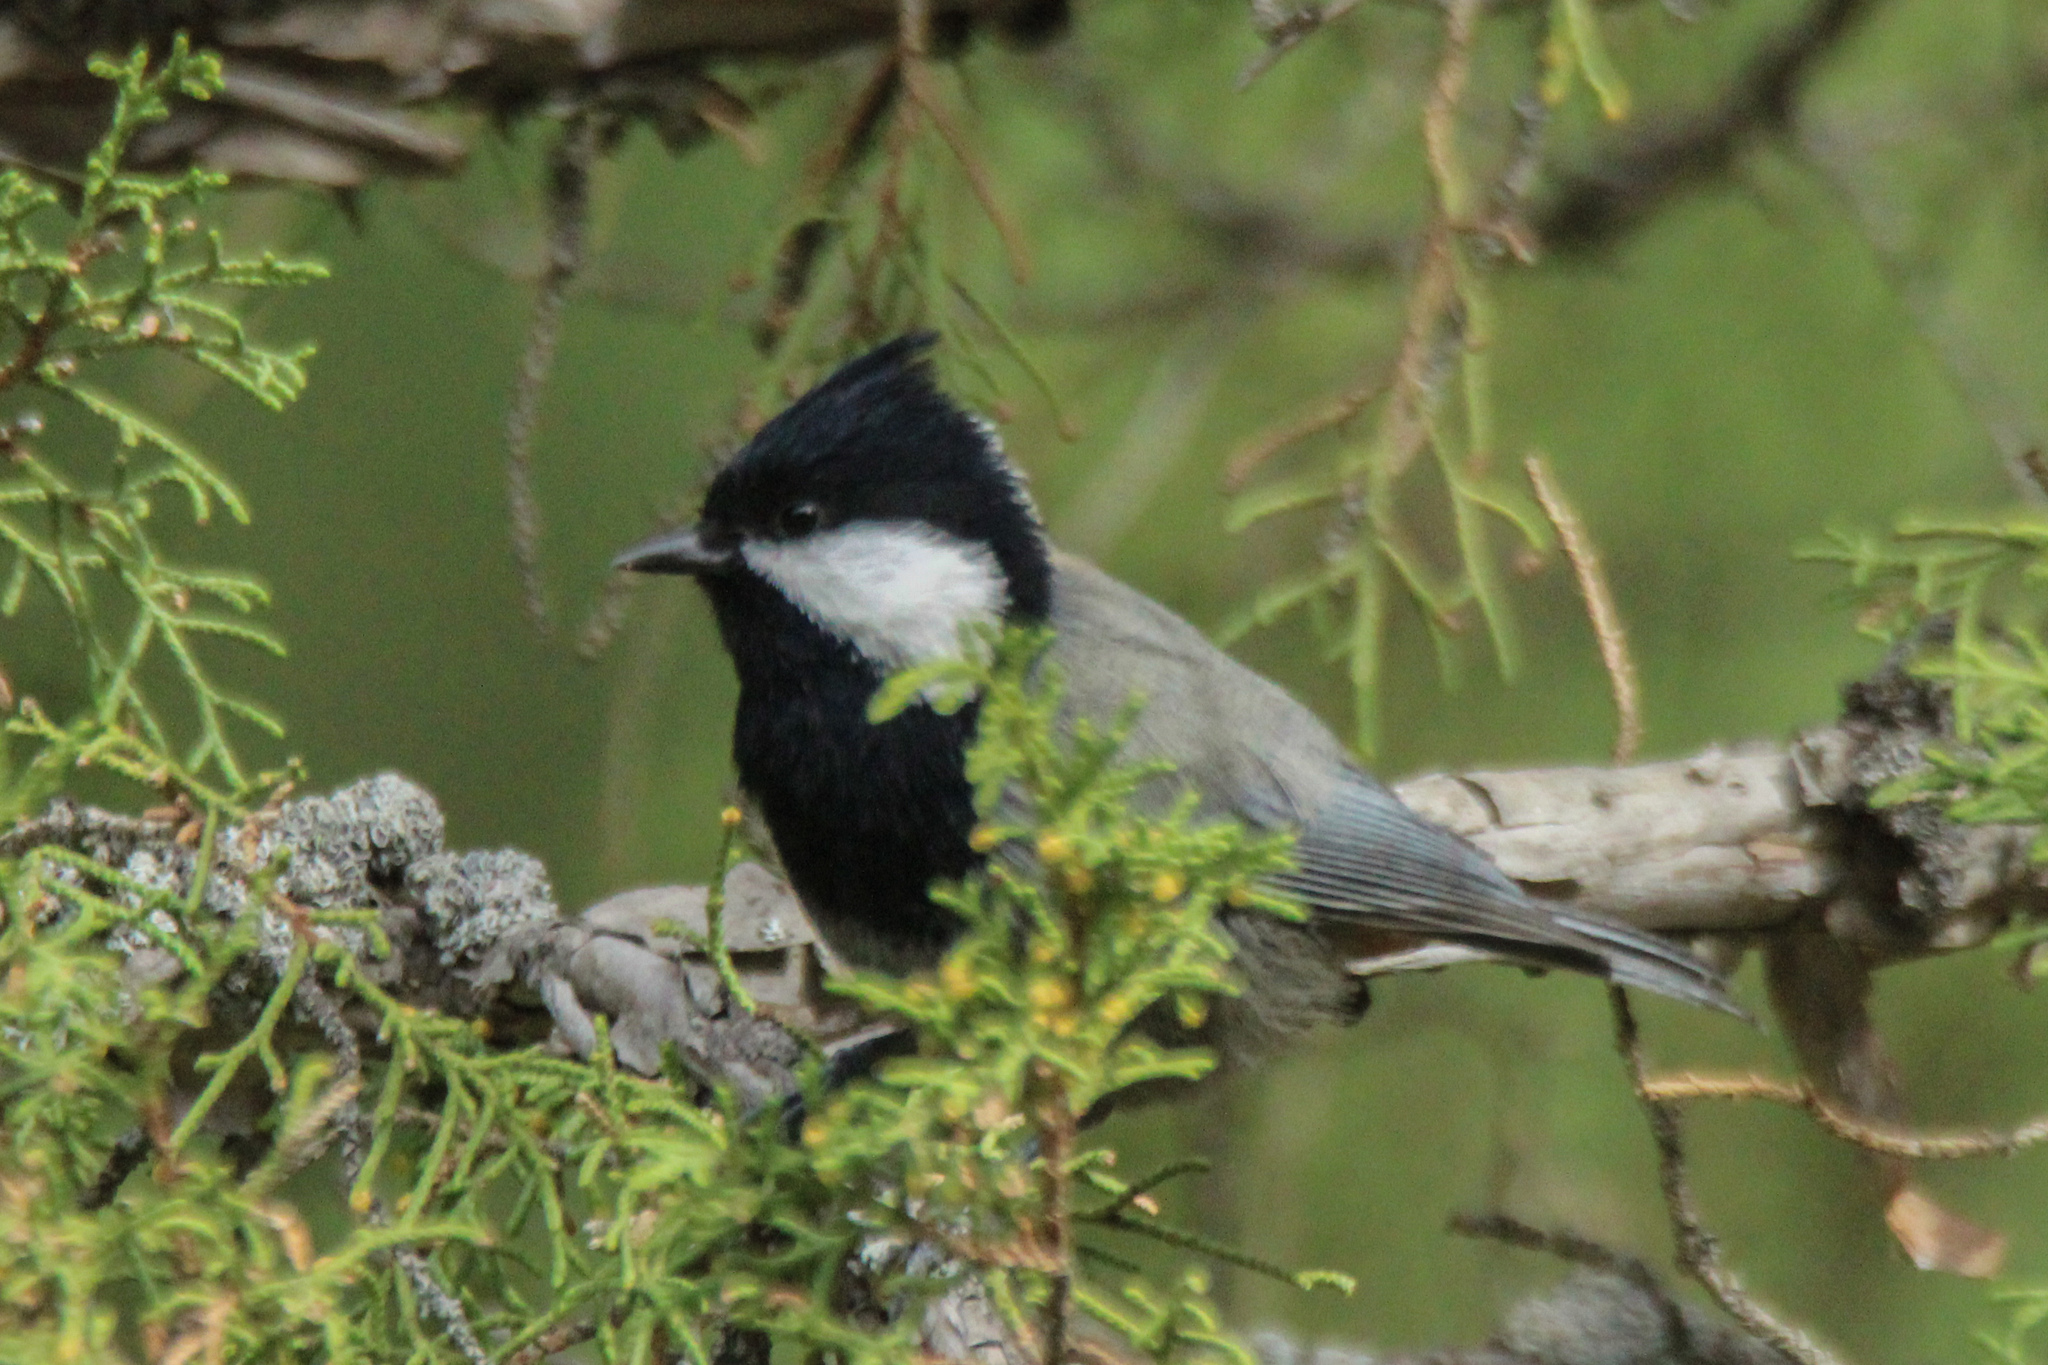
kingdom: Animalia
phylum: Chordata
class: Aves
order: Passeriformes
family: Paridae
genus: Periparus
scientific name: Periparus rufonuchalis
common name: Rufous-naped tit
